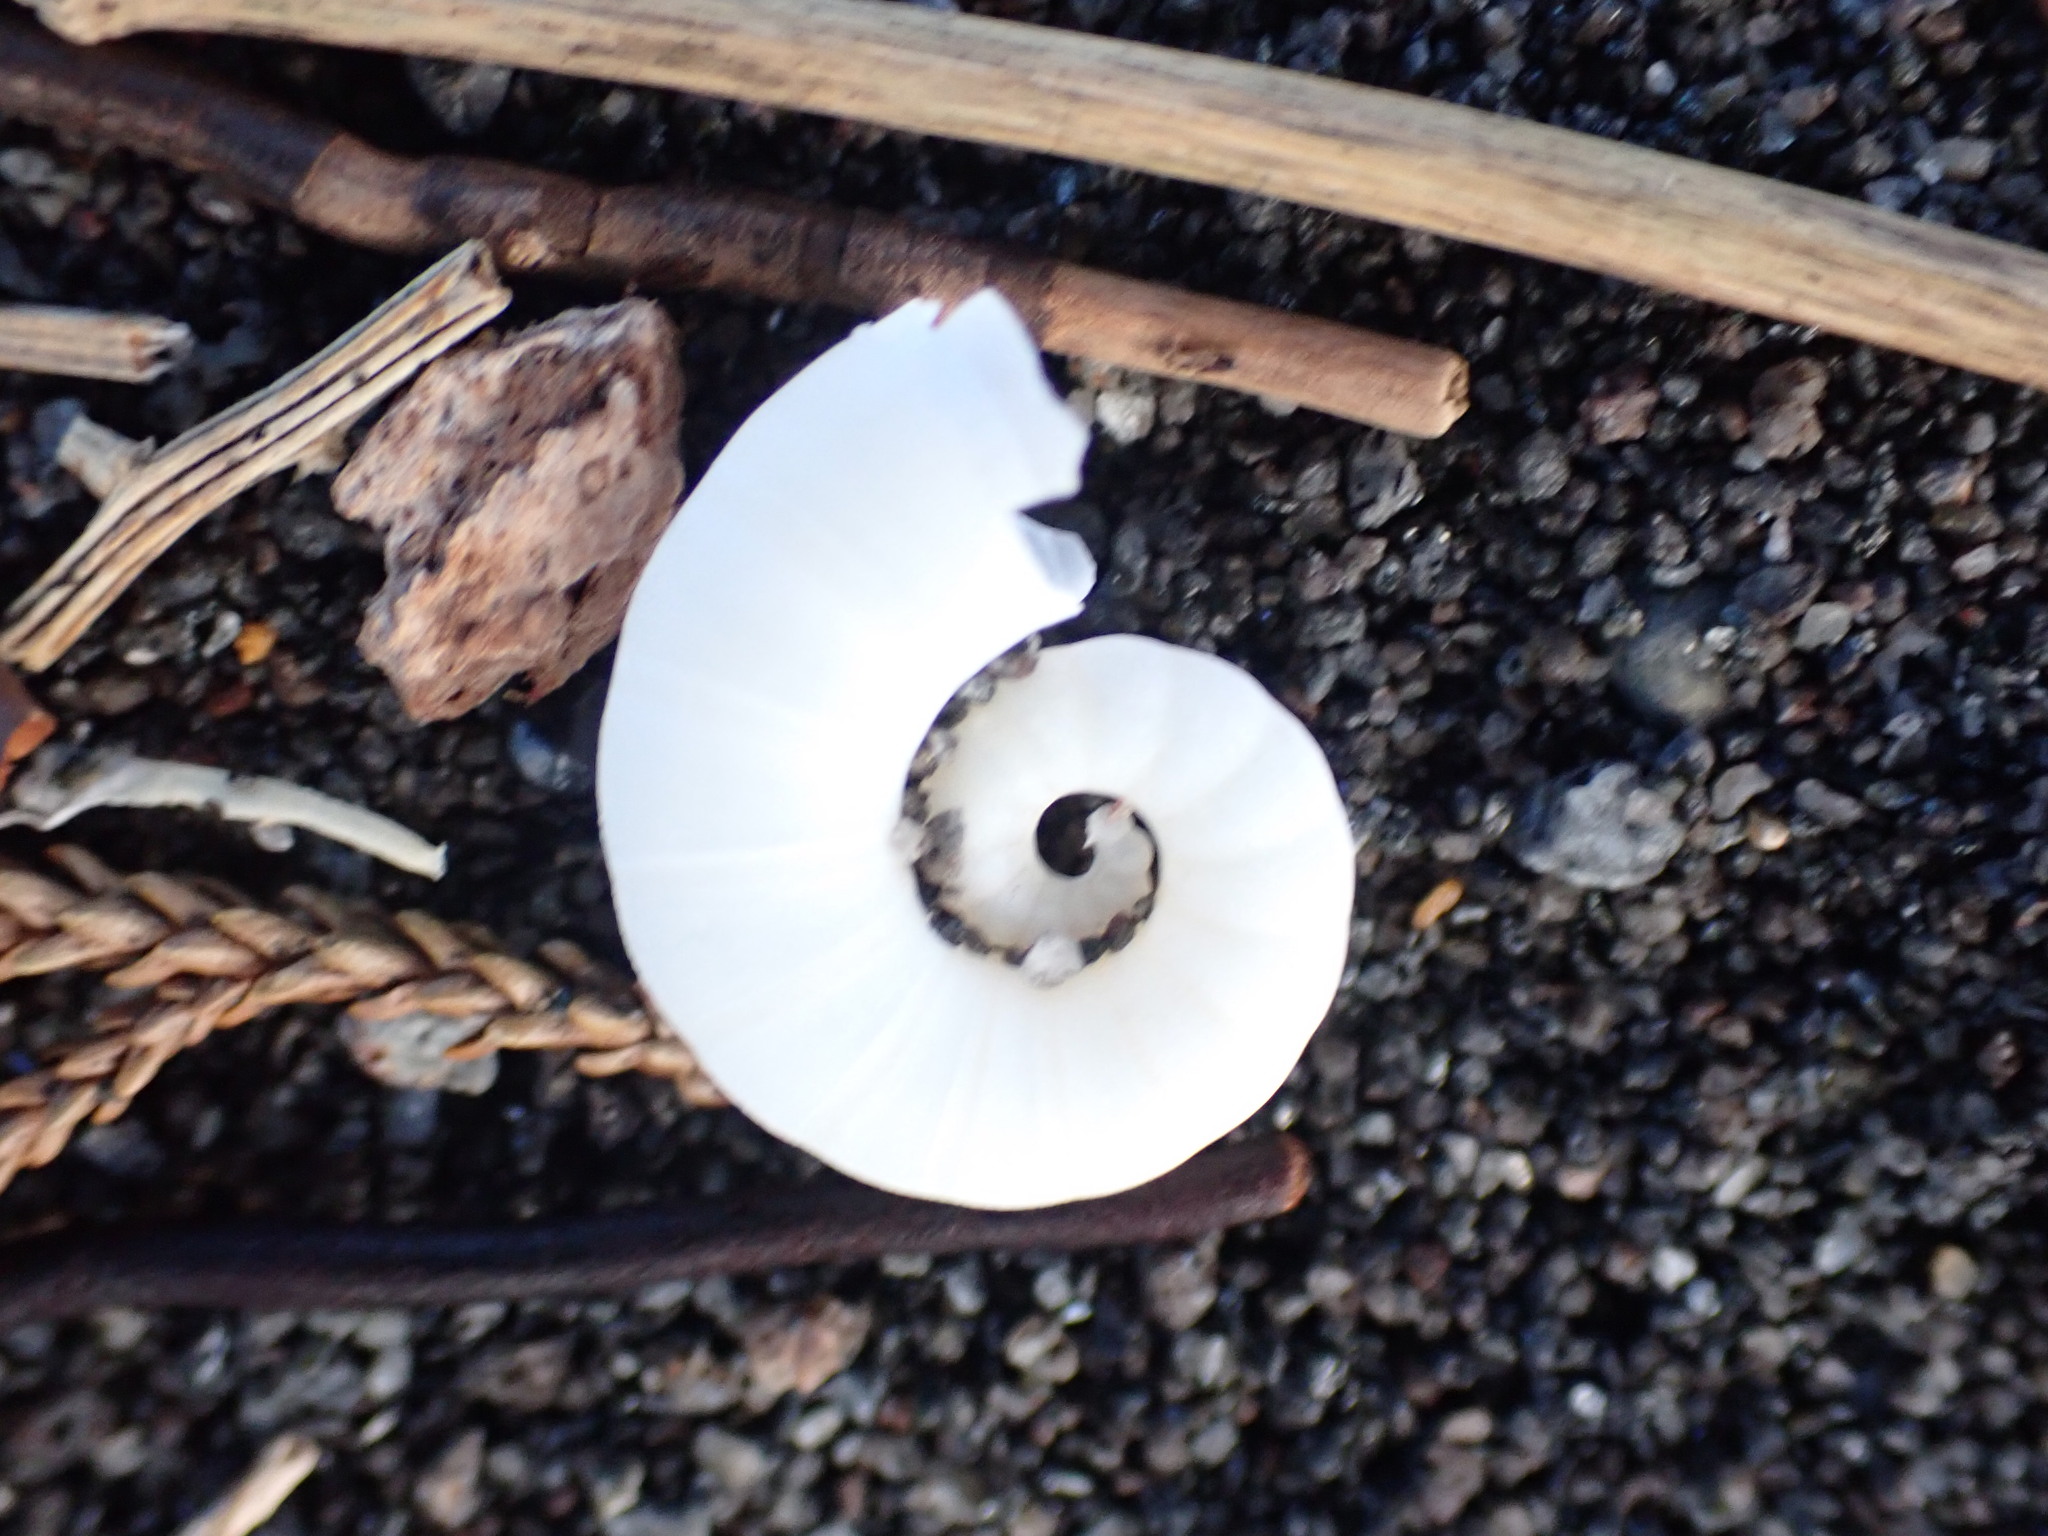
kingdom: Animalia
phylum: Mollusca
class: Cephalopoda
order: Spirulida
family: Spirulidae
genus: Spirula
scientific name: Spirula spirula
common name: Ram's horn squid
